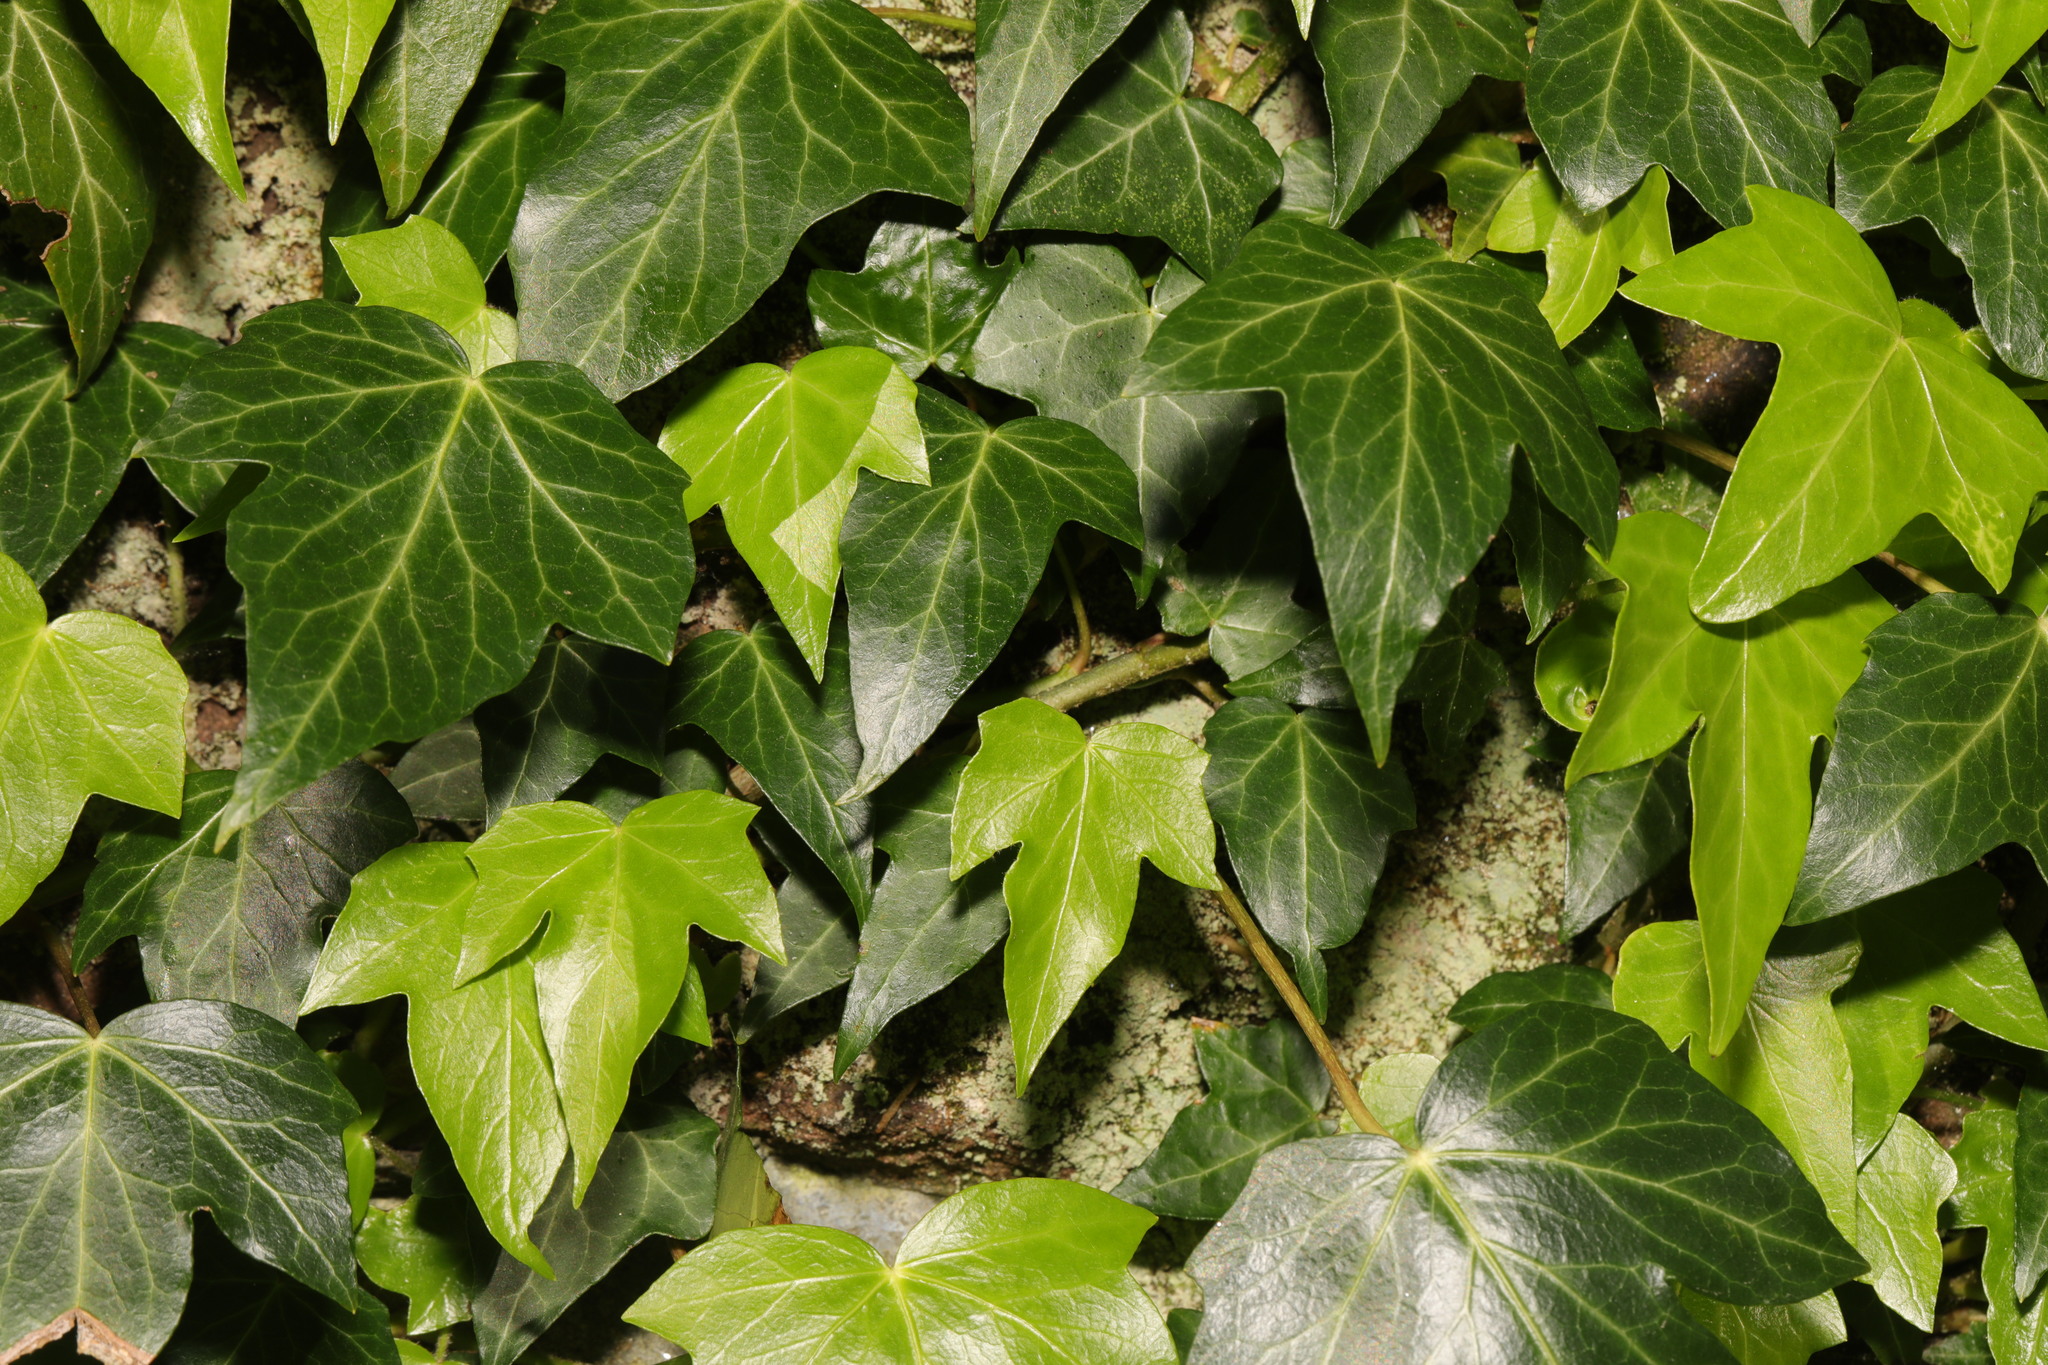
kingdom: Plantae
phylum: Tracheophyta
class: Magnoliopsida
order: Apiales
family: Araliaceae
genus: Hedera
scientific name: Hedera helix
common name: Ivy
